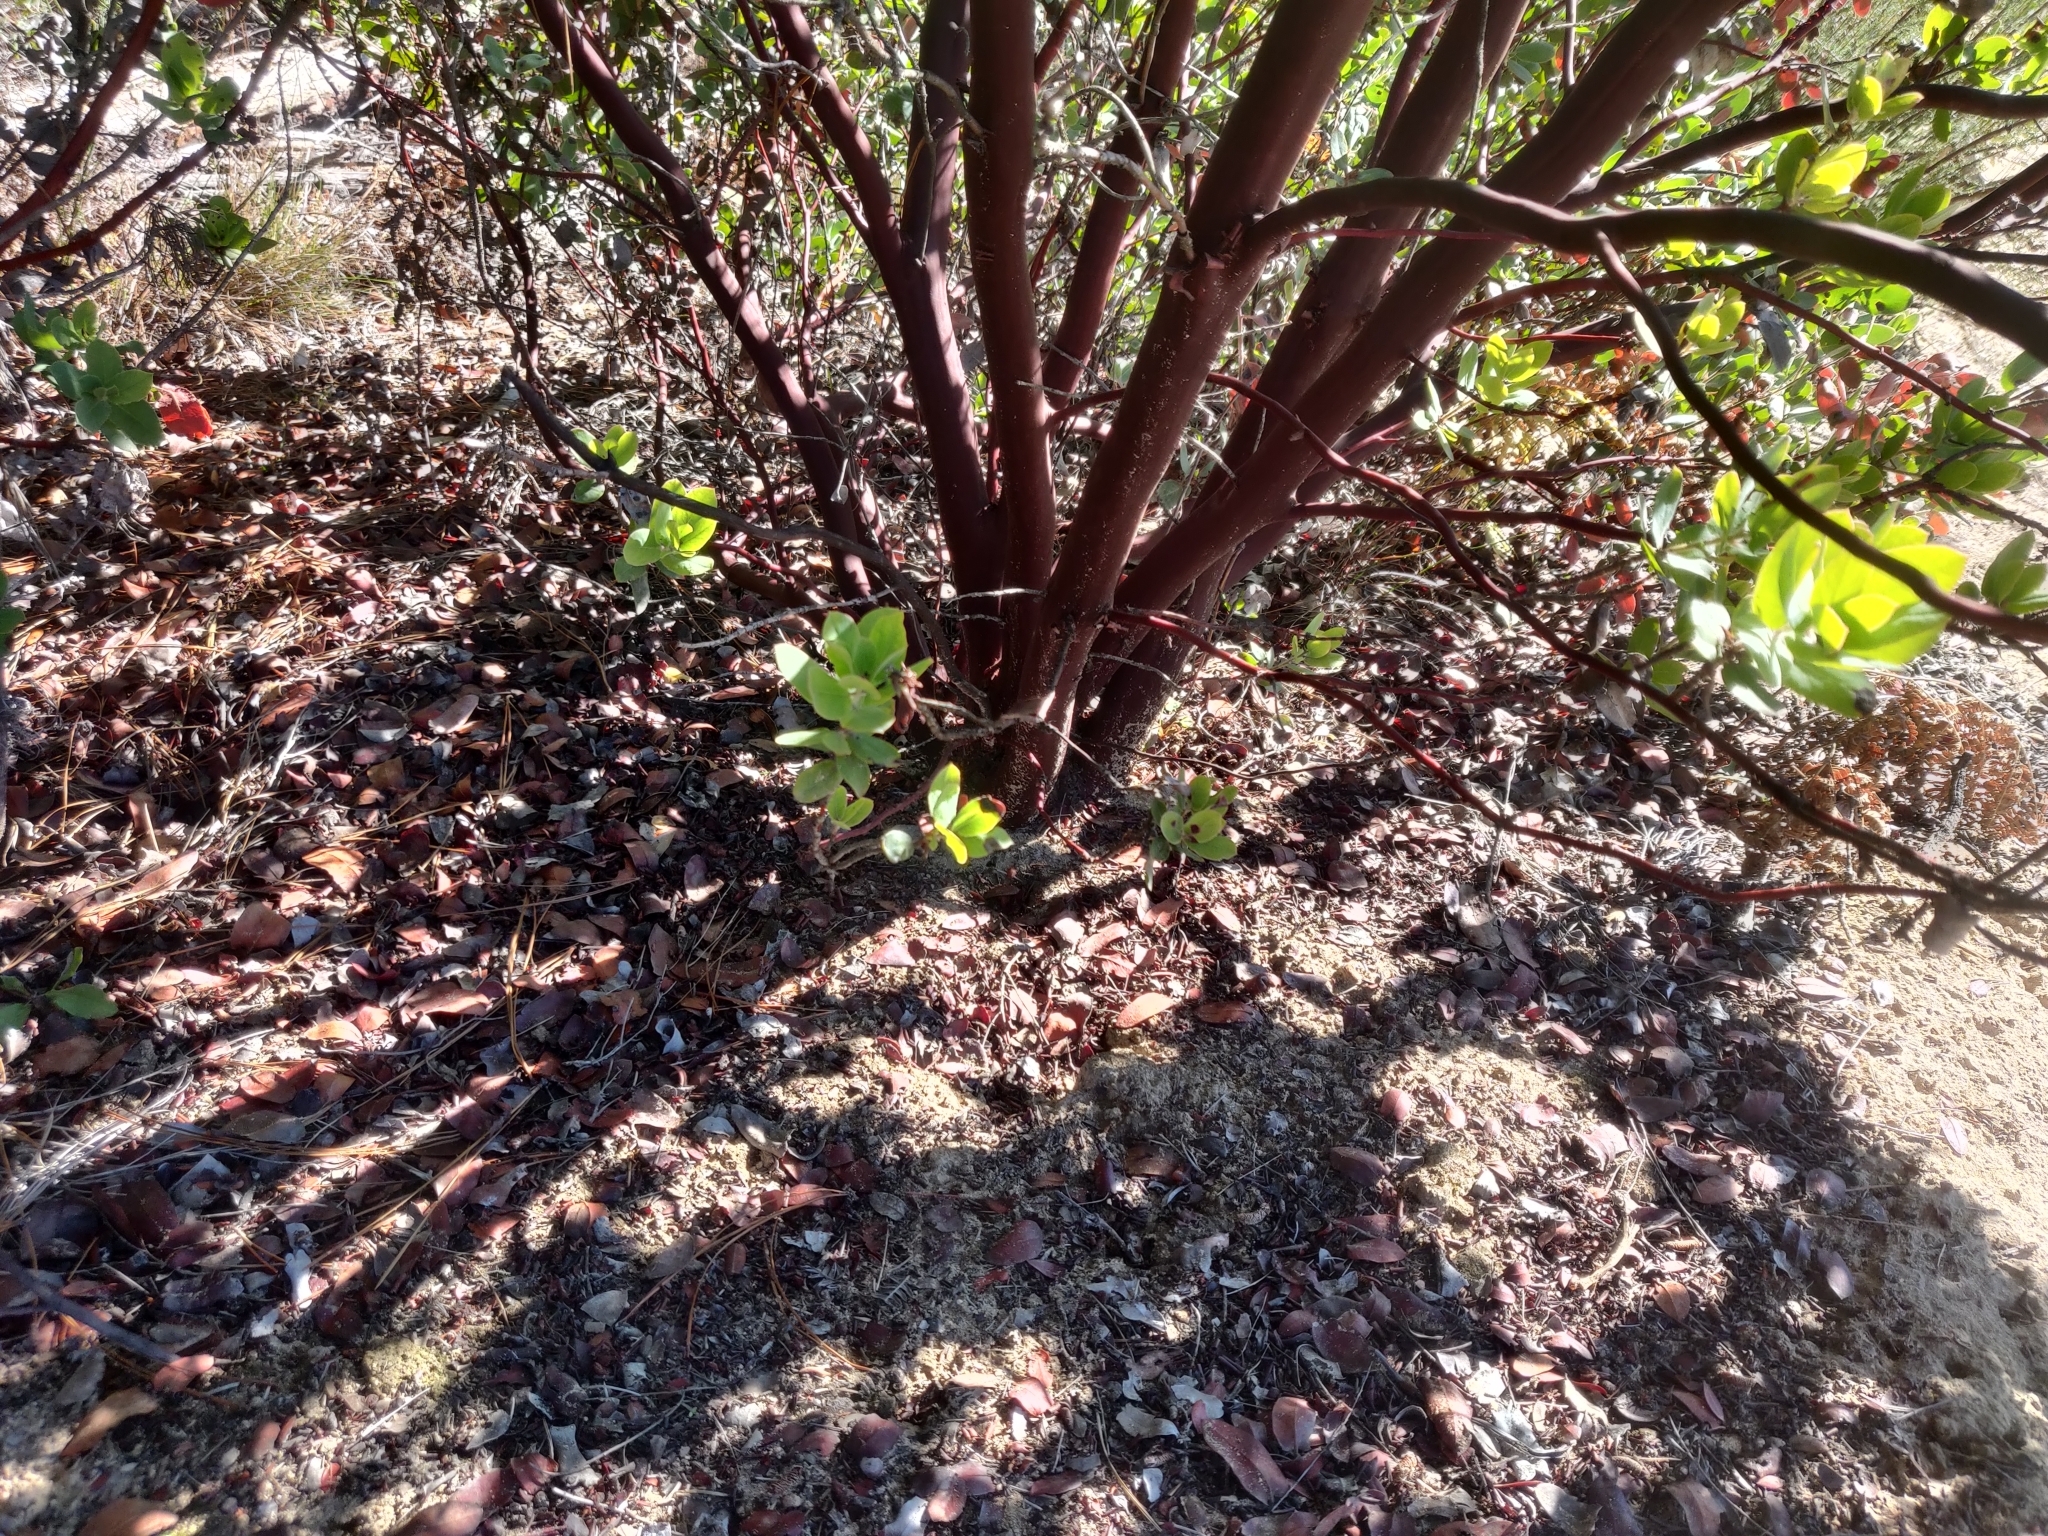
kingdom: Plantae
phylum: Tracheophyta
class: Magnoliopsida
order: Ericales
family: Ericaceae
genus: Arctostaphylos
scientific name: Arctostaphylos andersonii
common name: Santa cruz manzanita
